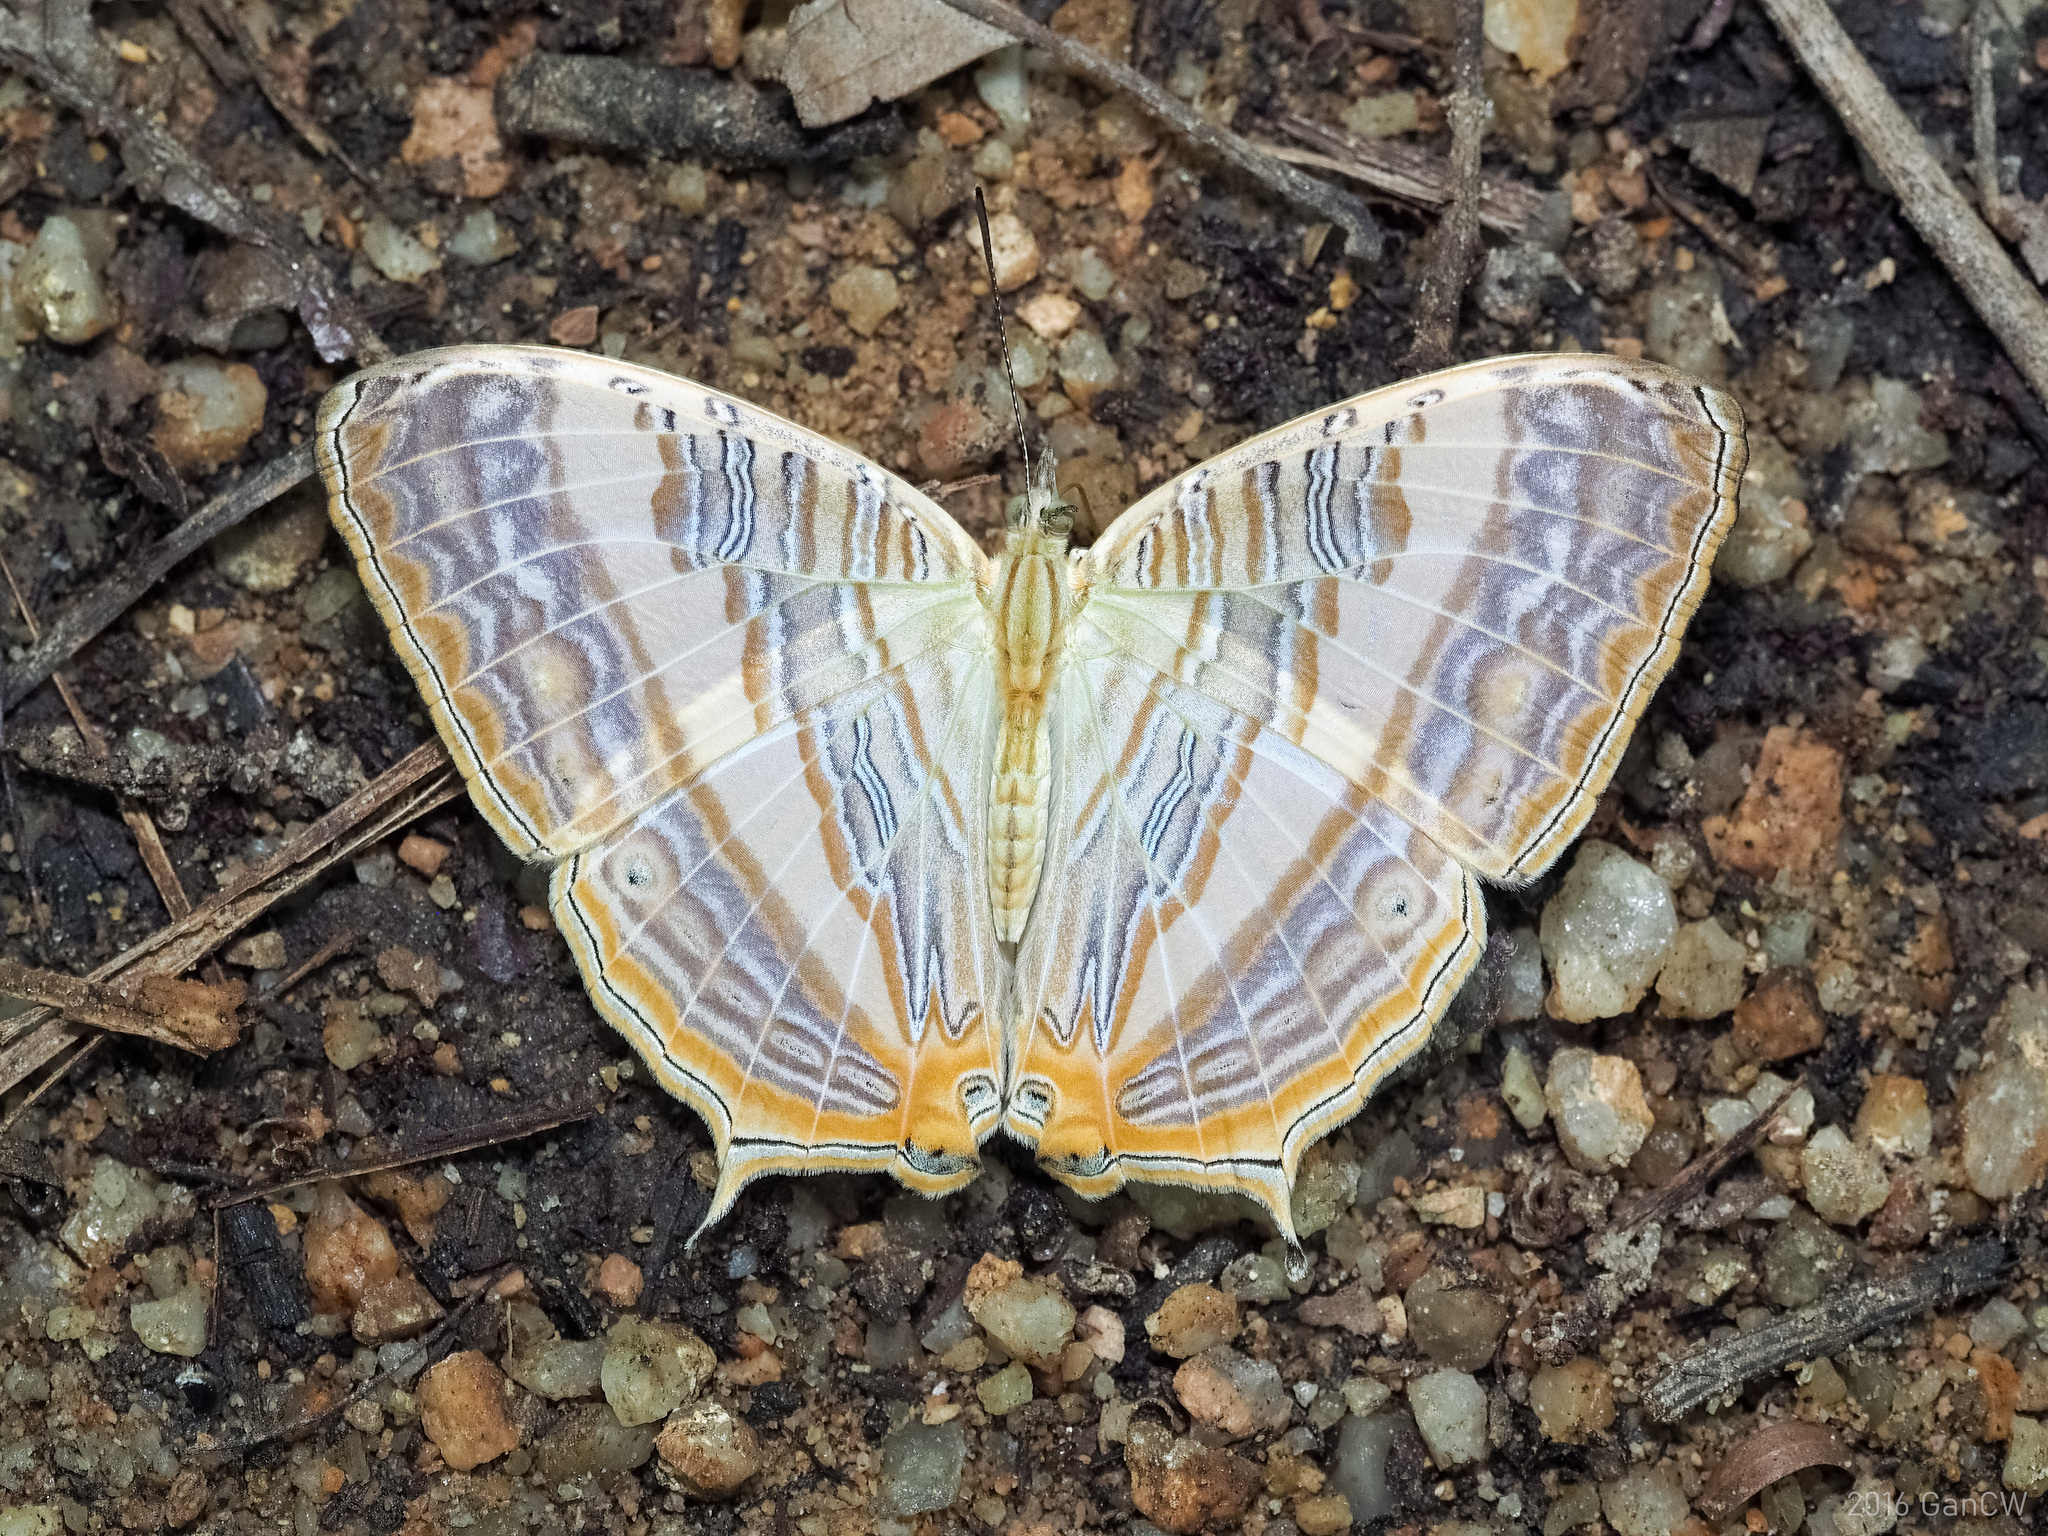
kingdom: Animalia
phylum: Arthropoda
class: Insecta
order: Lepidoptera
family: Nymphalidae
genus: Cyrestis
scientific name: Cyrestis cocles
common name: Marbled map
